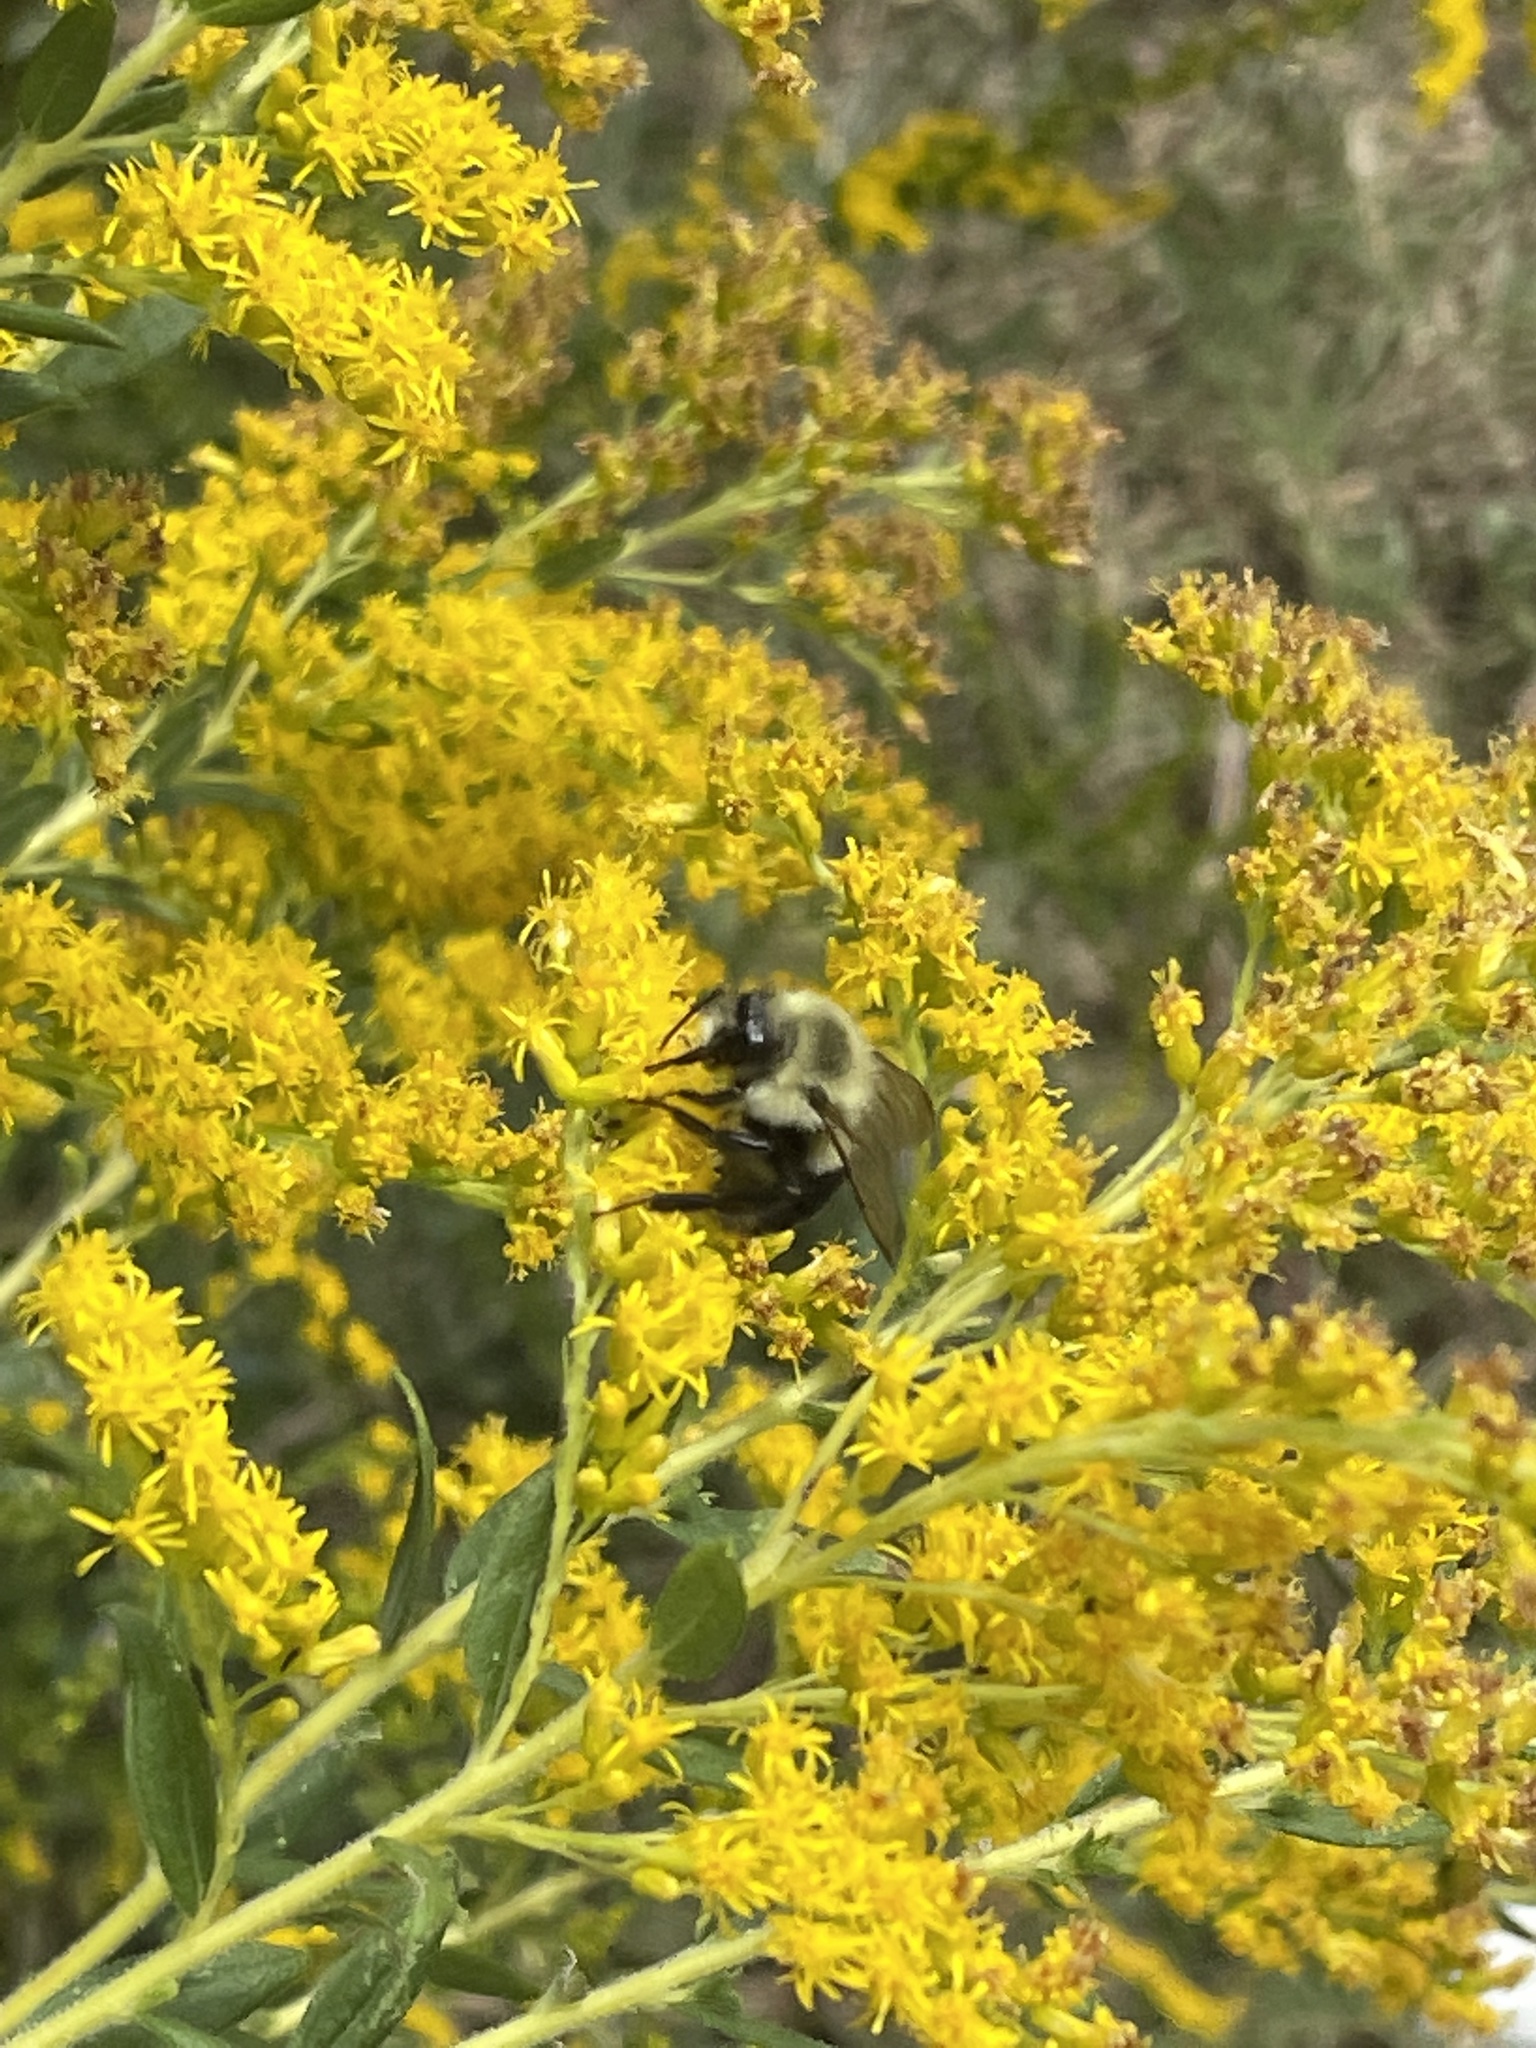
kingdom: Animalia
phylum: Arthropoda
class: Insecta
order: Hymenoptera
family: Apidae
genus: Bombus
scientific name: Bombus impatiens
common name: Common eastern bumble bee
